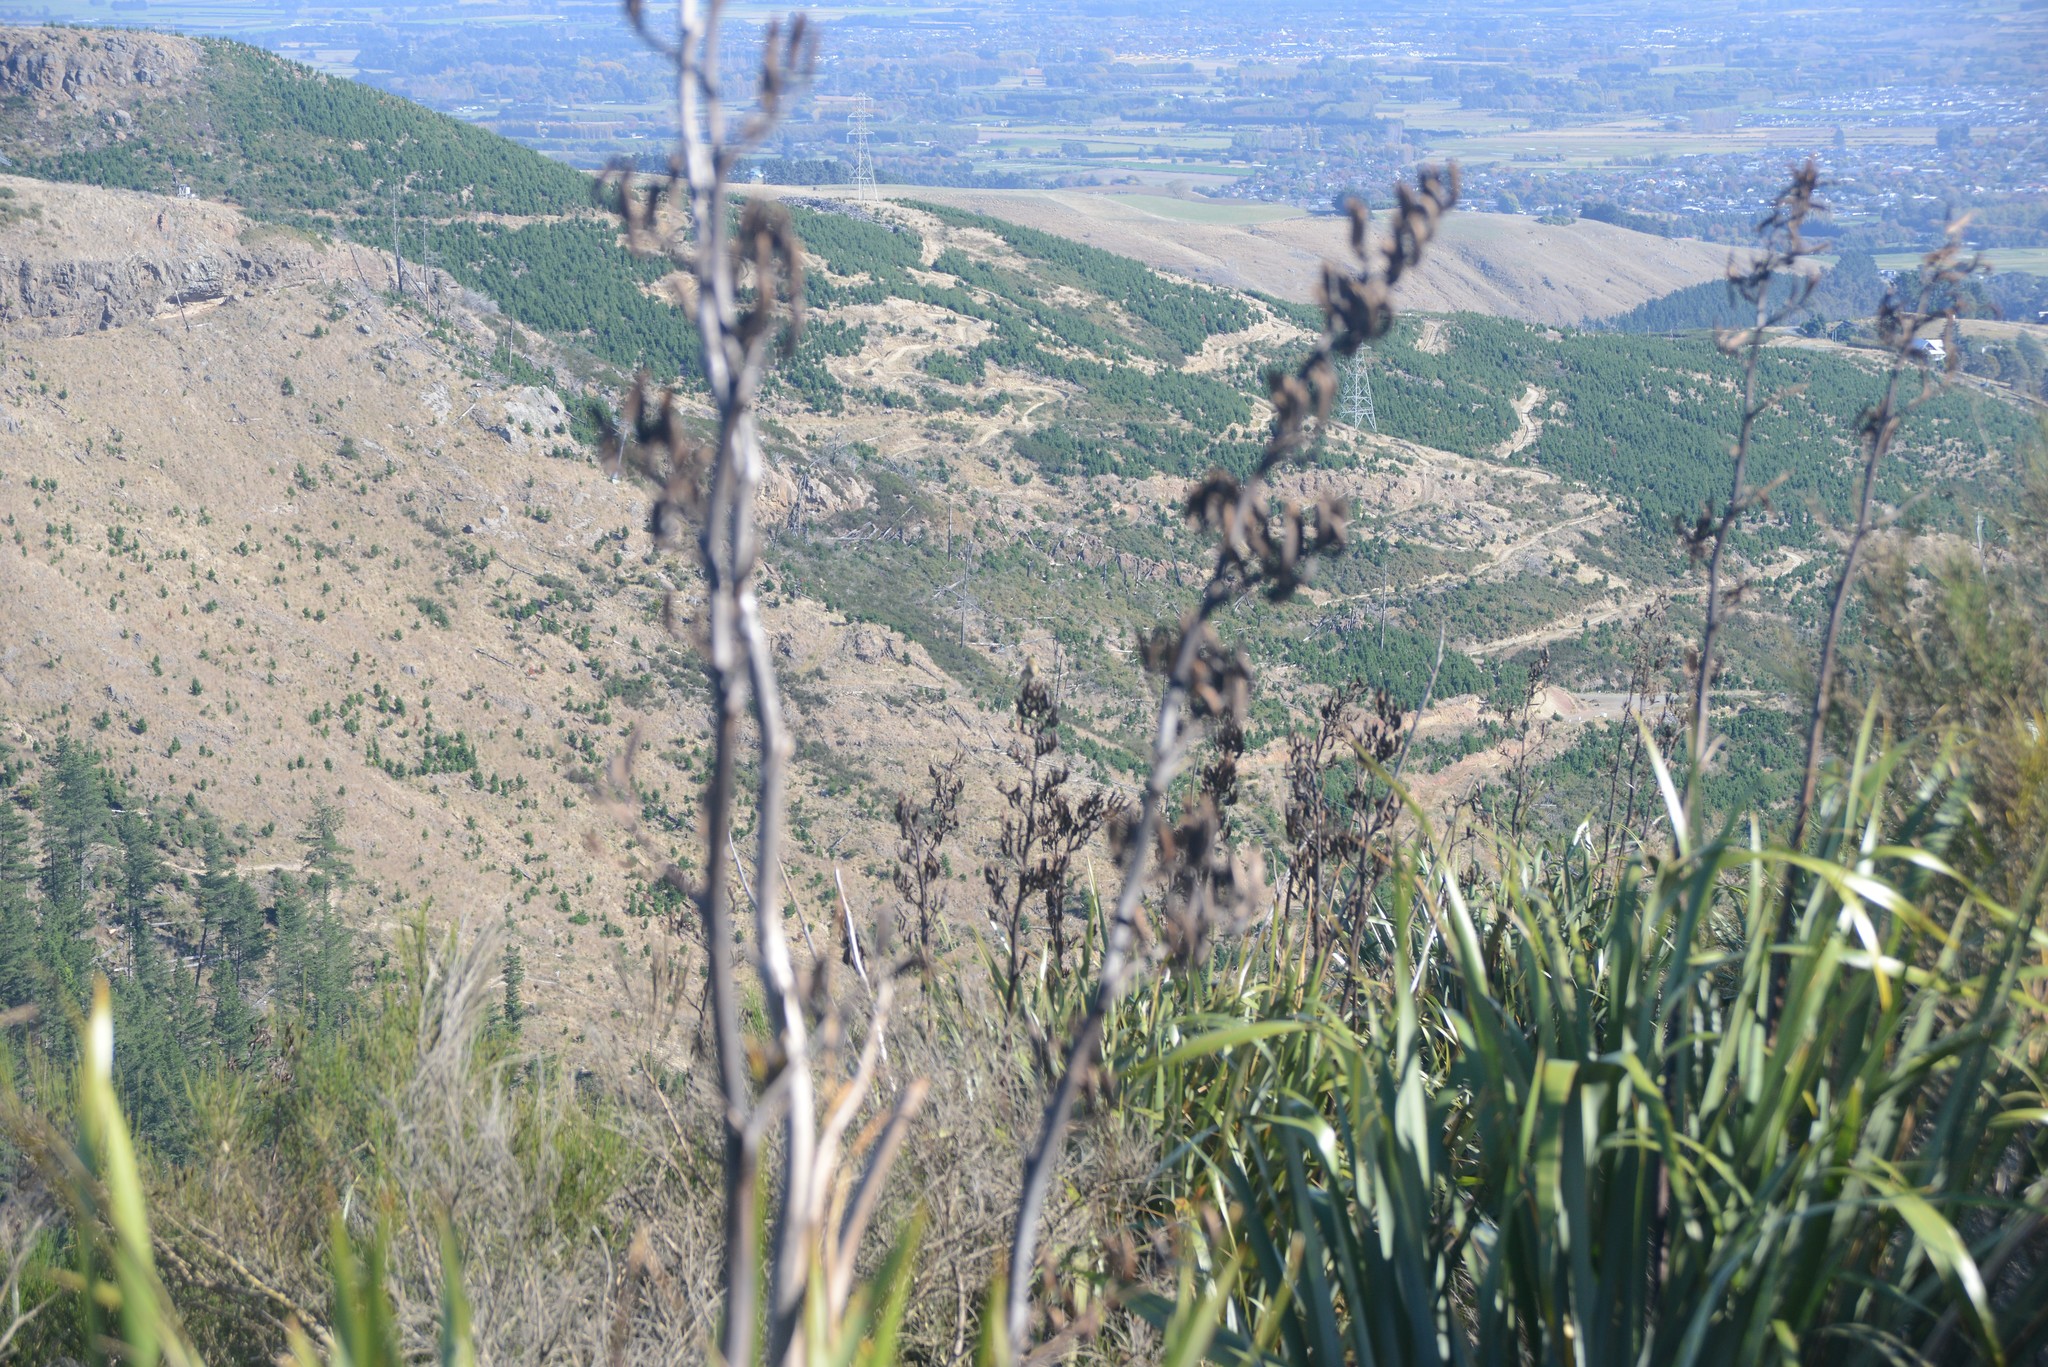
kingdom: Plantae
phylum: Tracheophyta
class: Liliopsida
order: Asparagales
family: Asphodelaceae
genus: Phormium
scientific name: Phormium tenax
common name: New zealand flax
